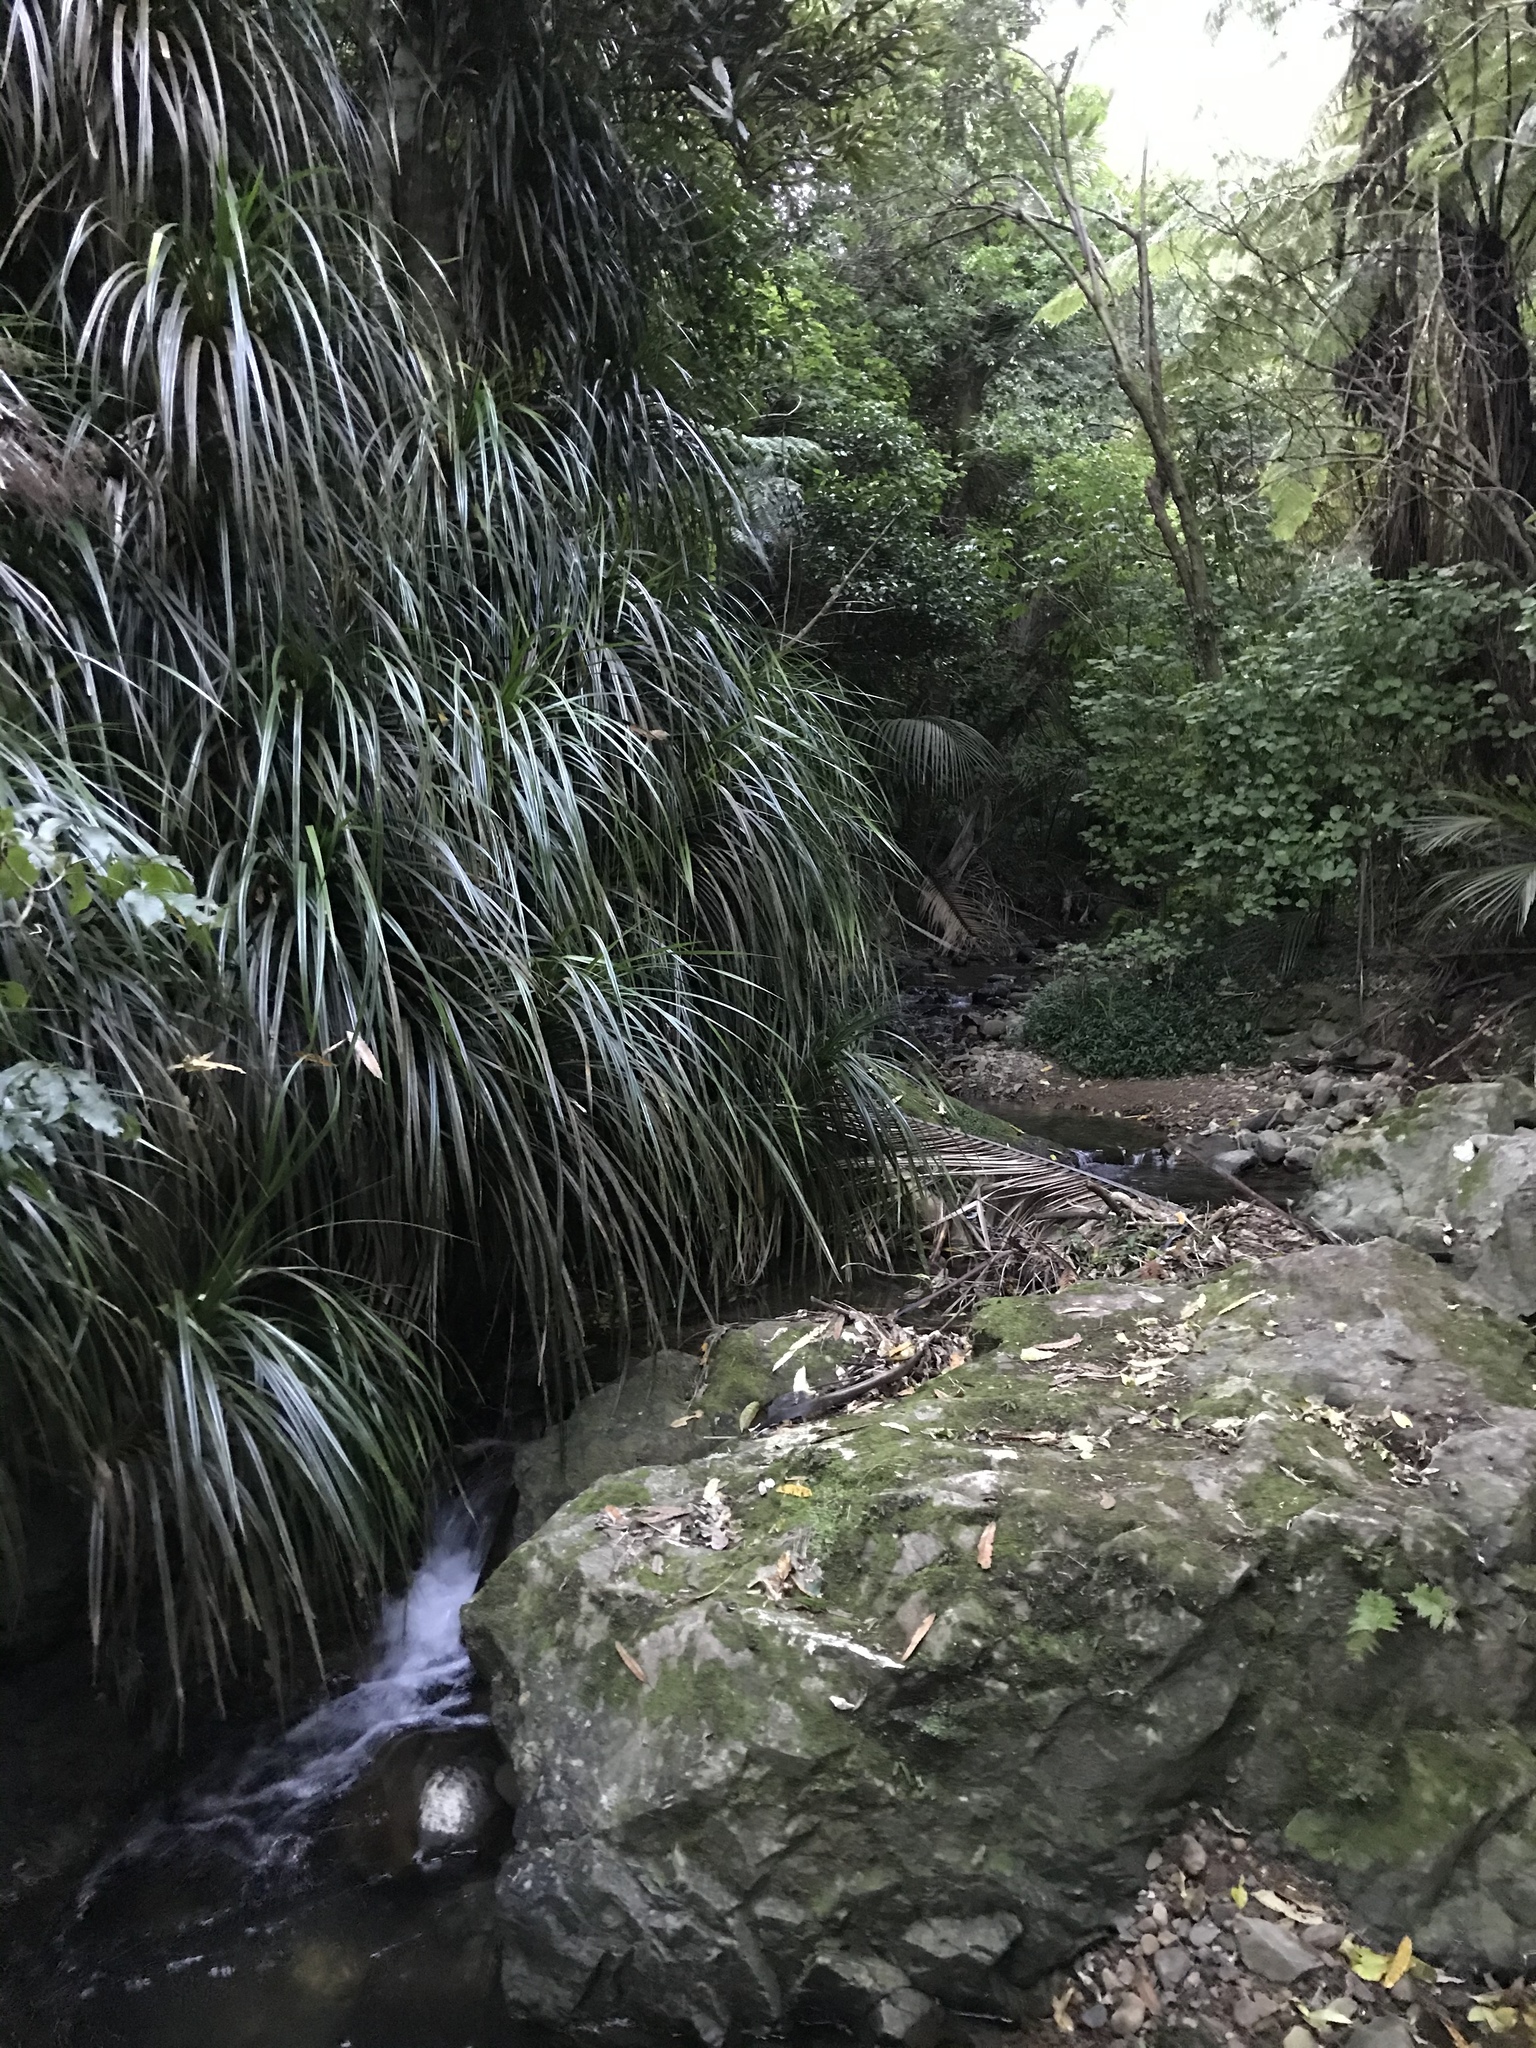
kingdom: Plantae
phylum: Tracheophyta
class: Liliopsida
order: Pandanales
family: Pandanaceae
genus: Freycinetia
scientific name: Freycinetia banksii
